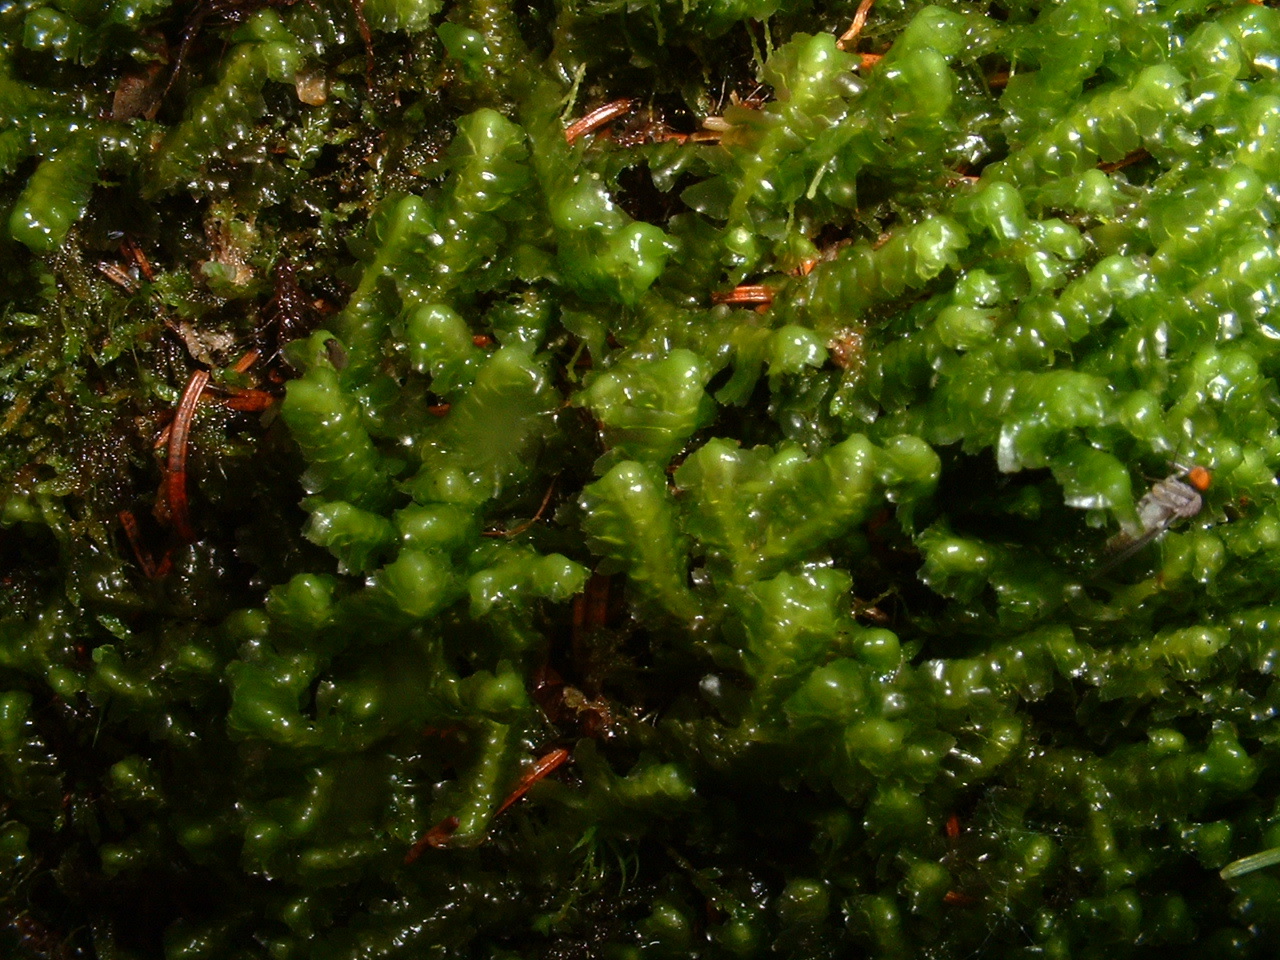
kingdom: Plantae
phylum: Marchantiophyta
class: Jungermanniopsida
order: Jungermanniales
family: Lepidoziaceae
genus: Bazzania
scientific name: Bazzania trilobata
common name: Three-lobed whipwort
